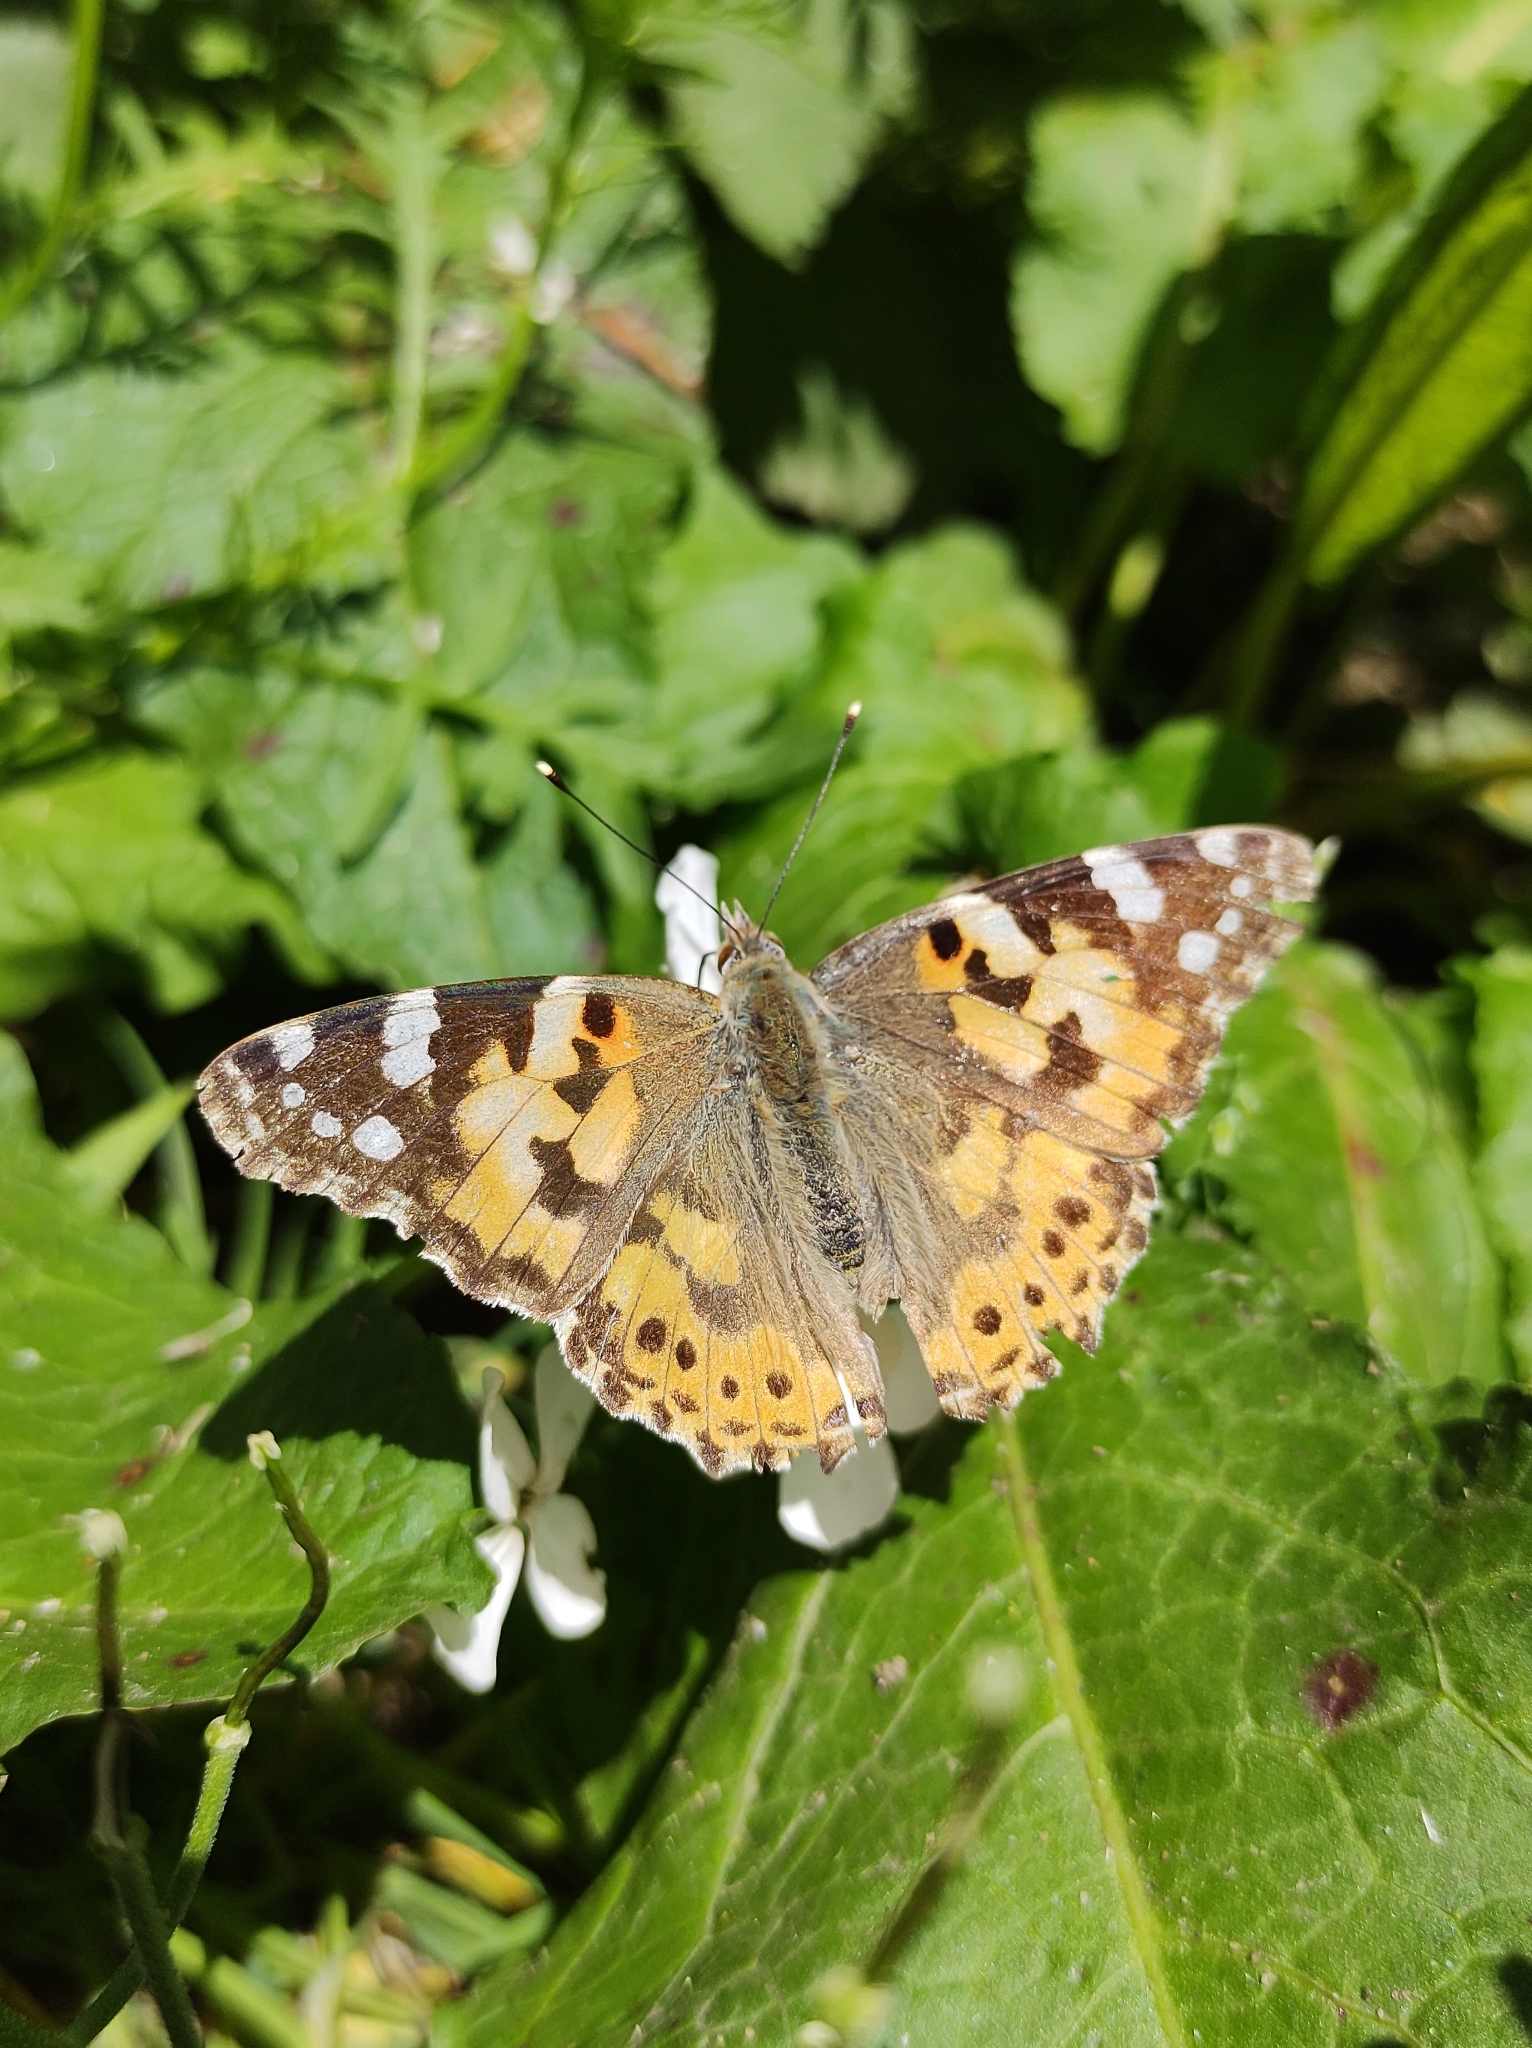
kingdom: Animalia
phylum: Arthropoda
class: Insecta
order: Lepidoptera
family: Nymphalidae
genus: Vanessa
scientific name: Vanessa cardui
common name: Painted lady
